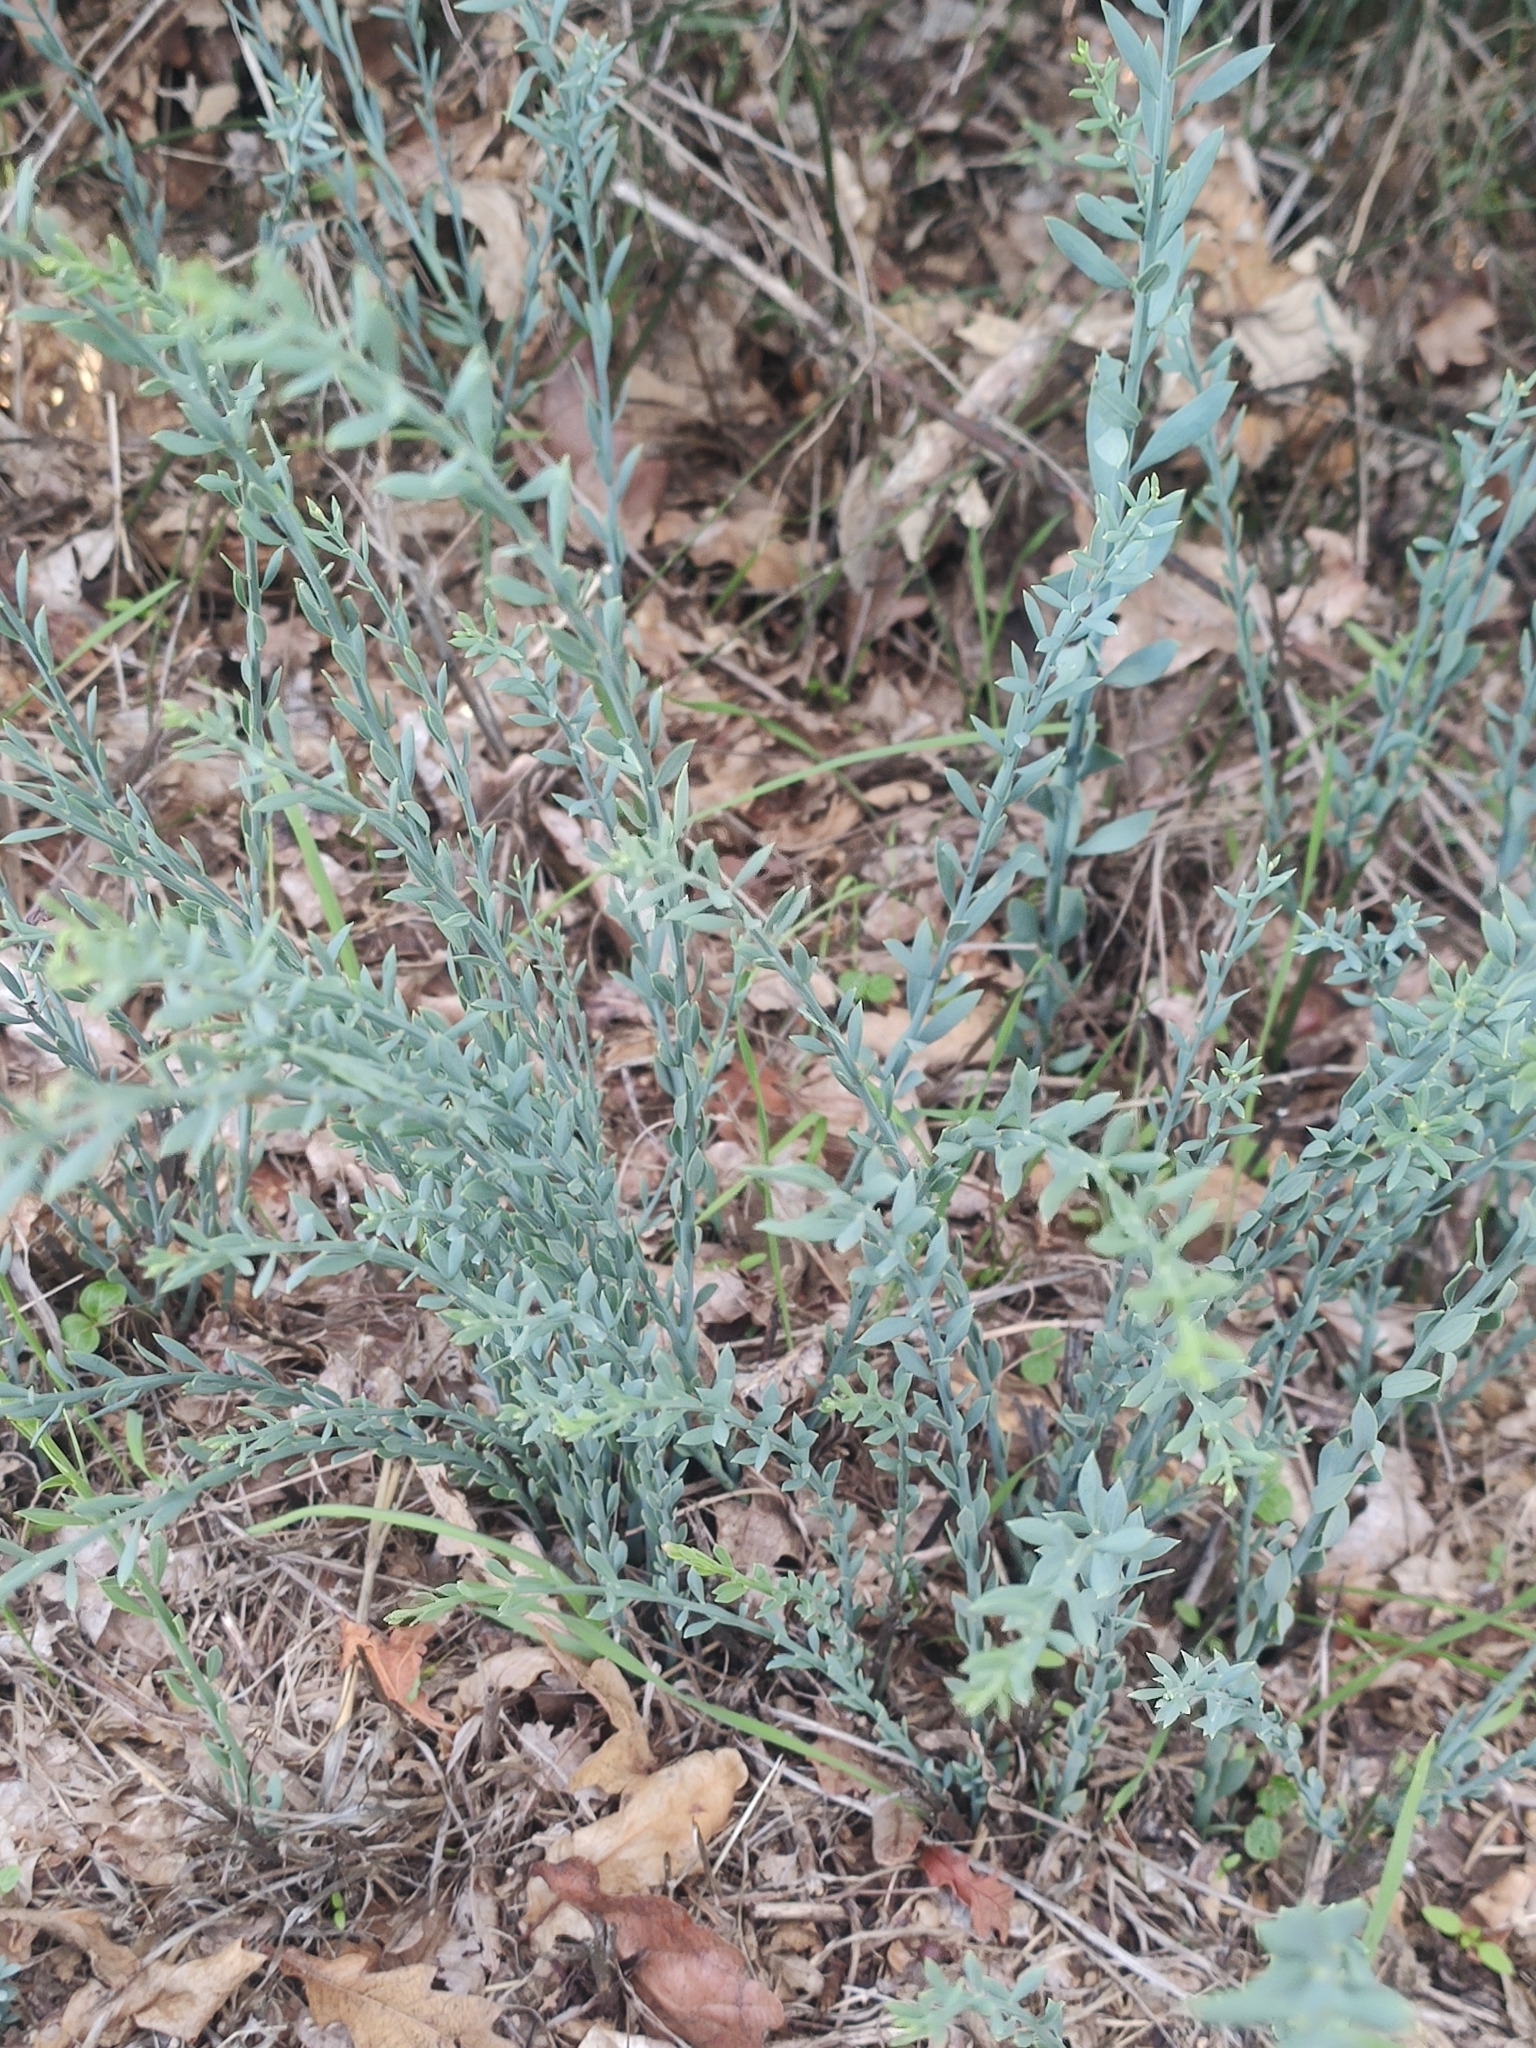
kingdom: Plantae
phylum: Tracheophyta
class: Magnoliopsida
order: Santalales
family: Santalaceae
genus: Osyris
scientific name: Osyris alba
